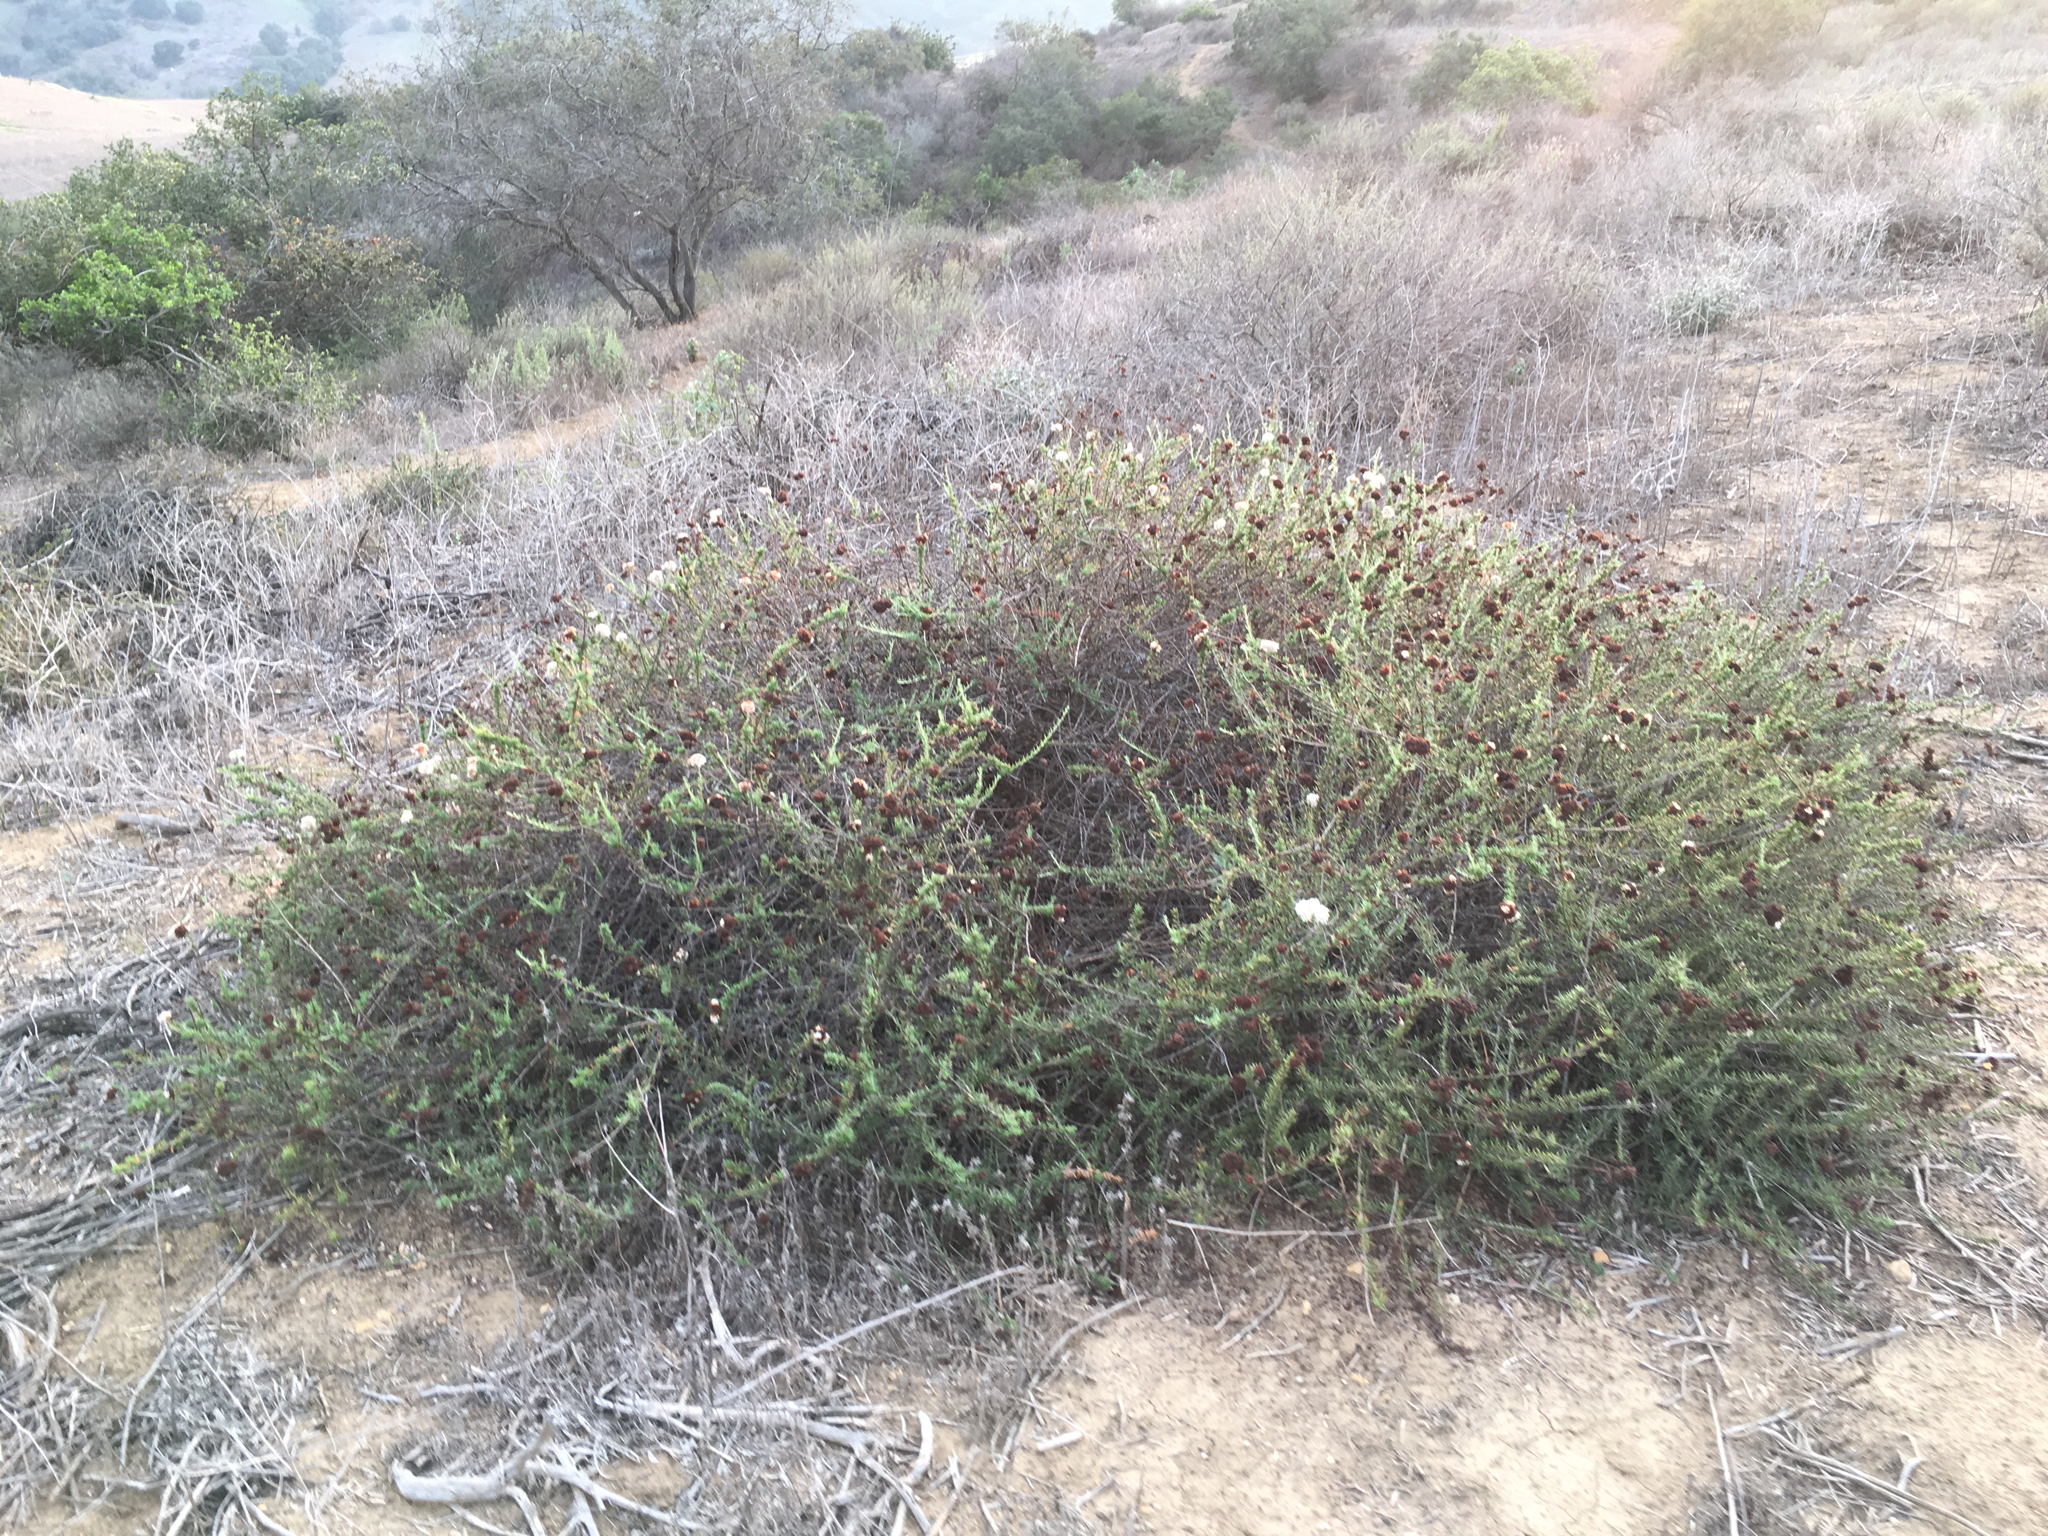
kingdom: Plantae
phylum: Tracheophyta
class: Magnoliopsida
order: Caryophyllales
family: Polygonaceae
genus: Eriogonum
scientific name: Eriogonum fasciculatum
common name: California wild buckwheat
